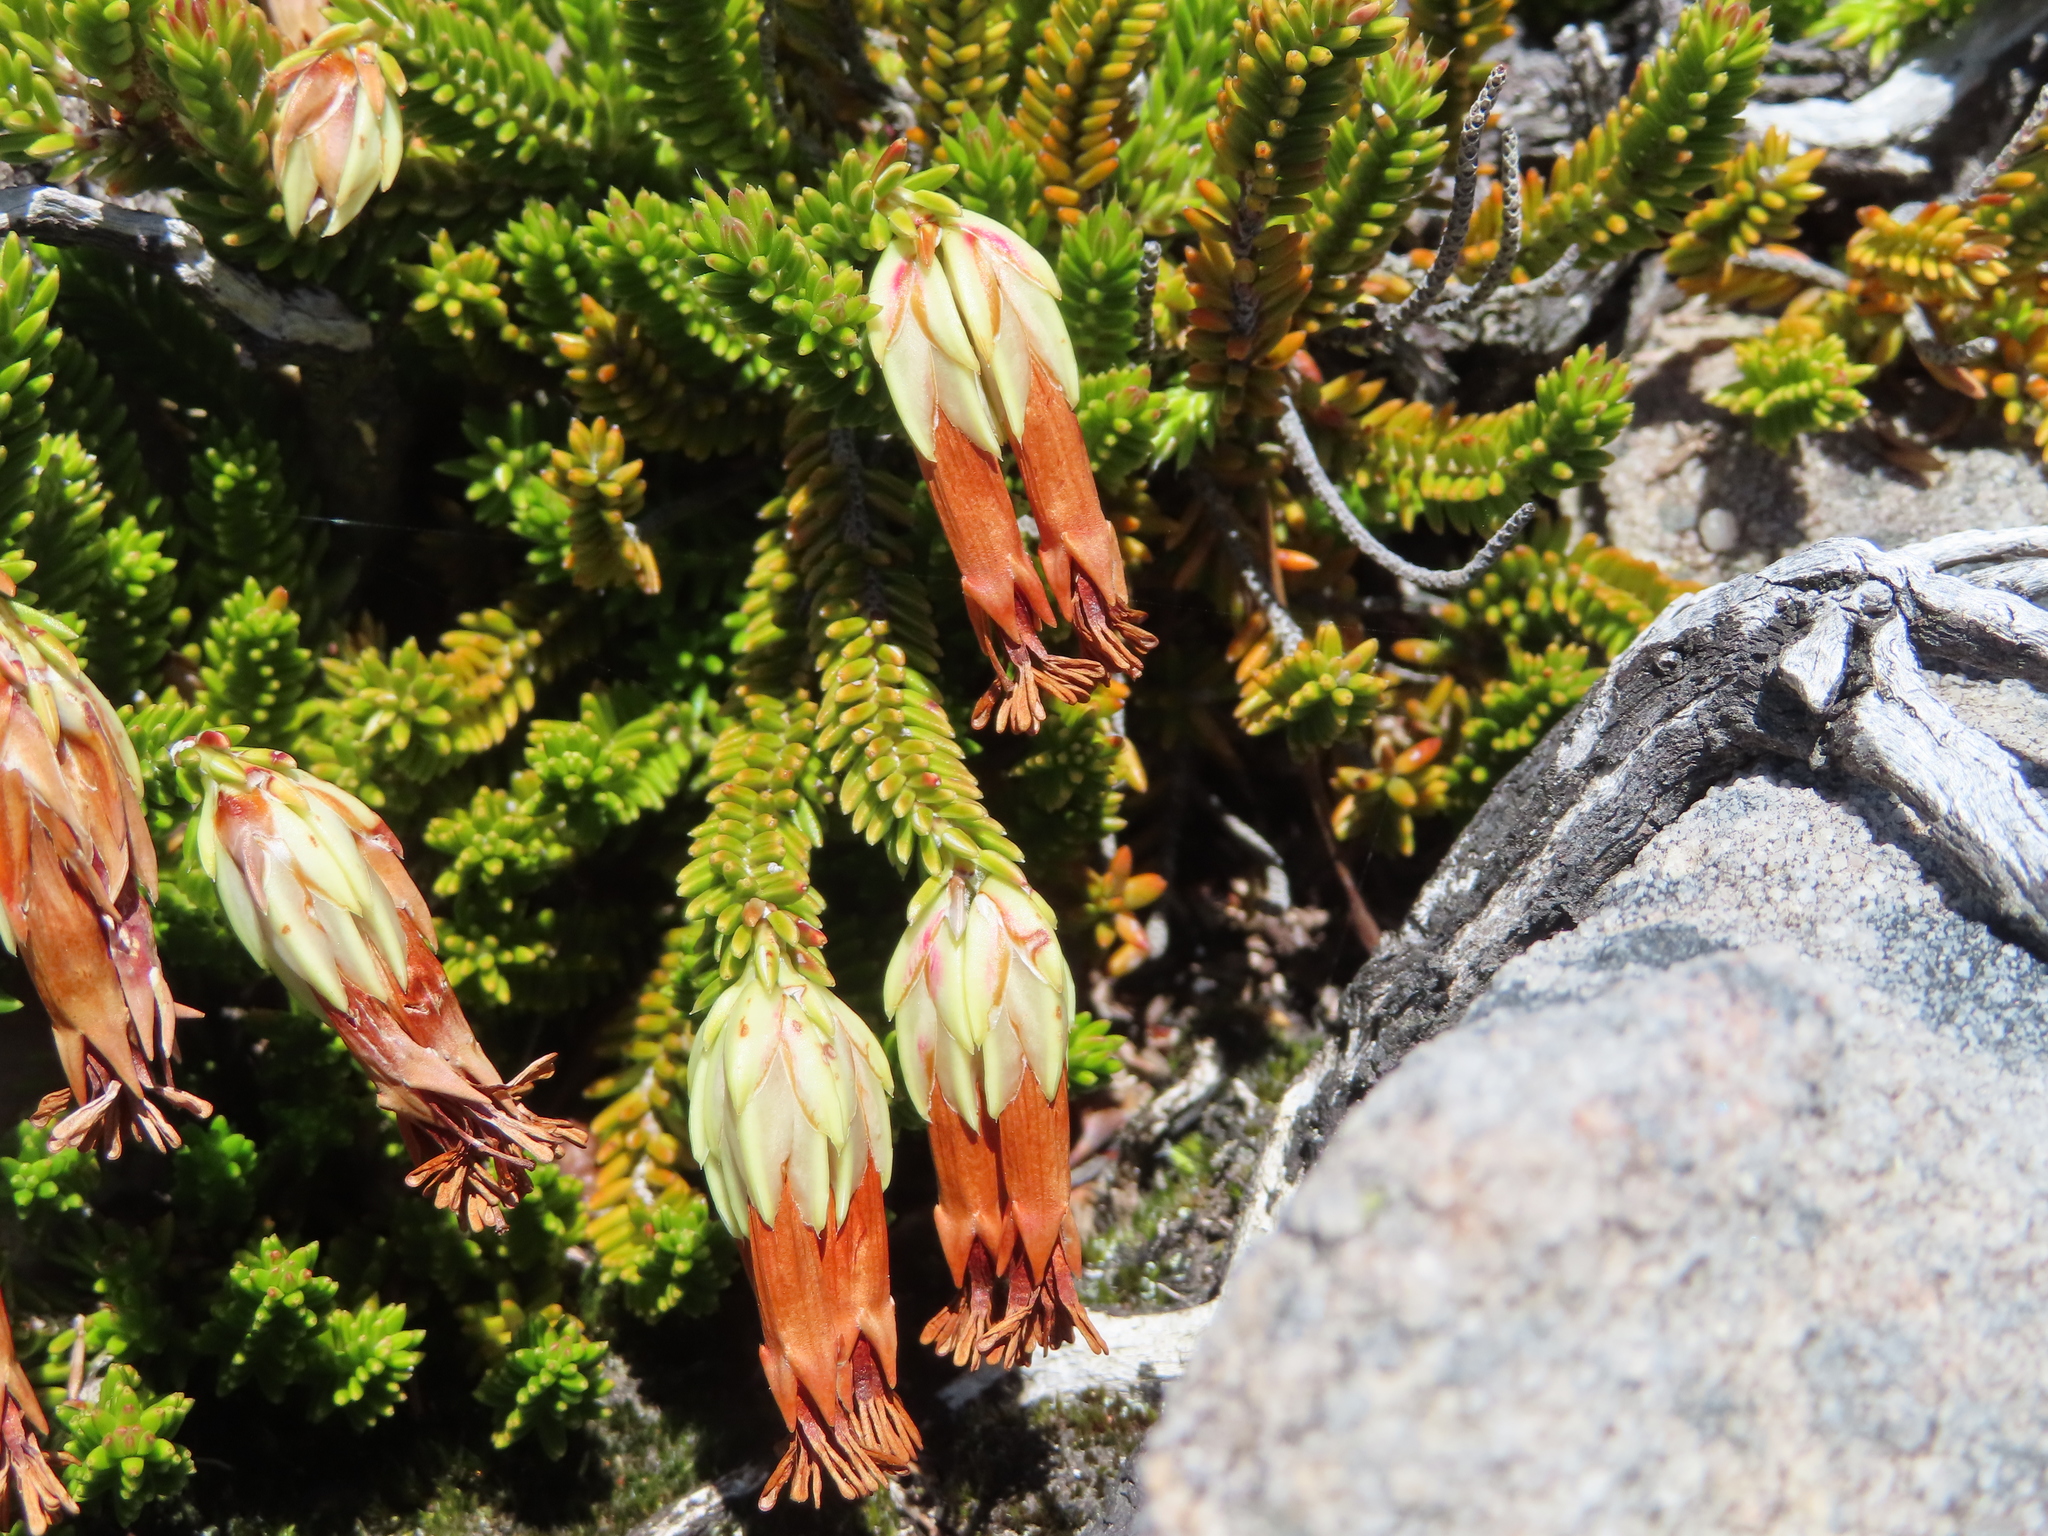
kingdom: Plantae
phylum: Tracheophyta
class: Magnoliopsida
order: Ericales
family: Ericaceae
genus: Erica
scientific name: Erica banksia
